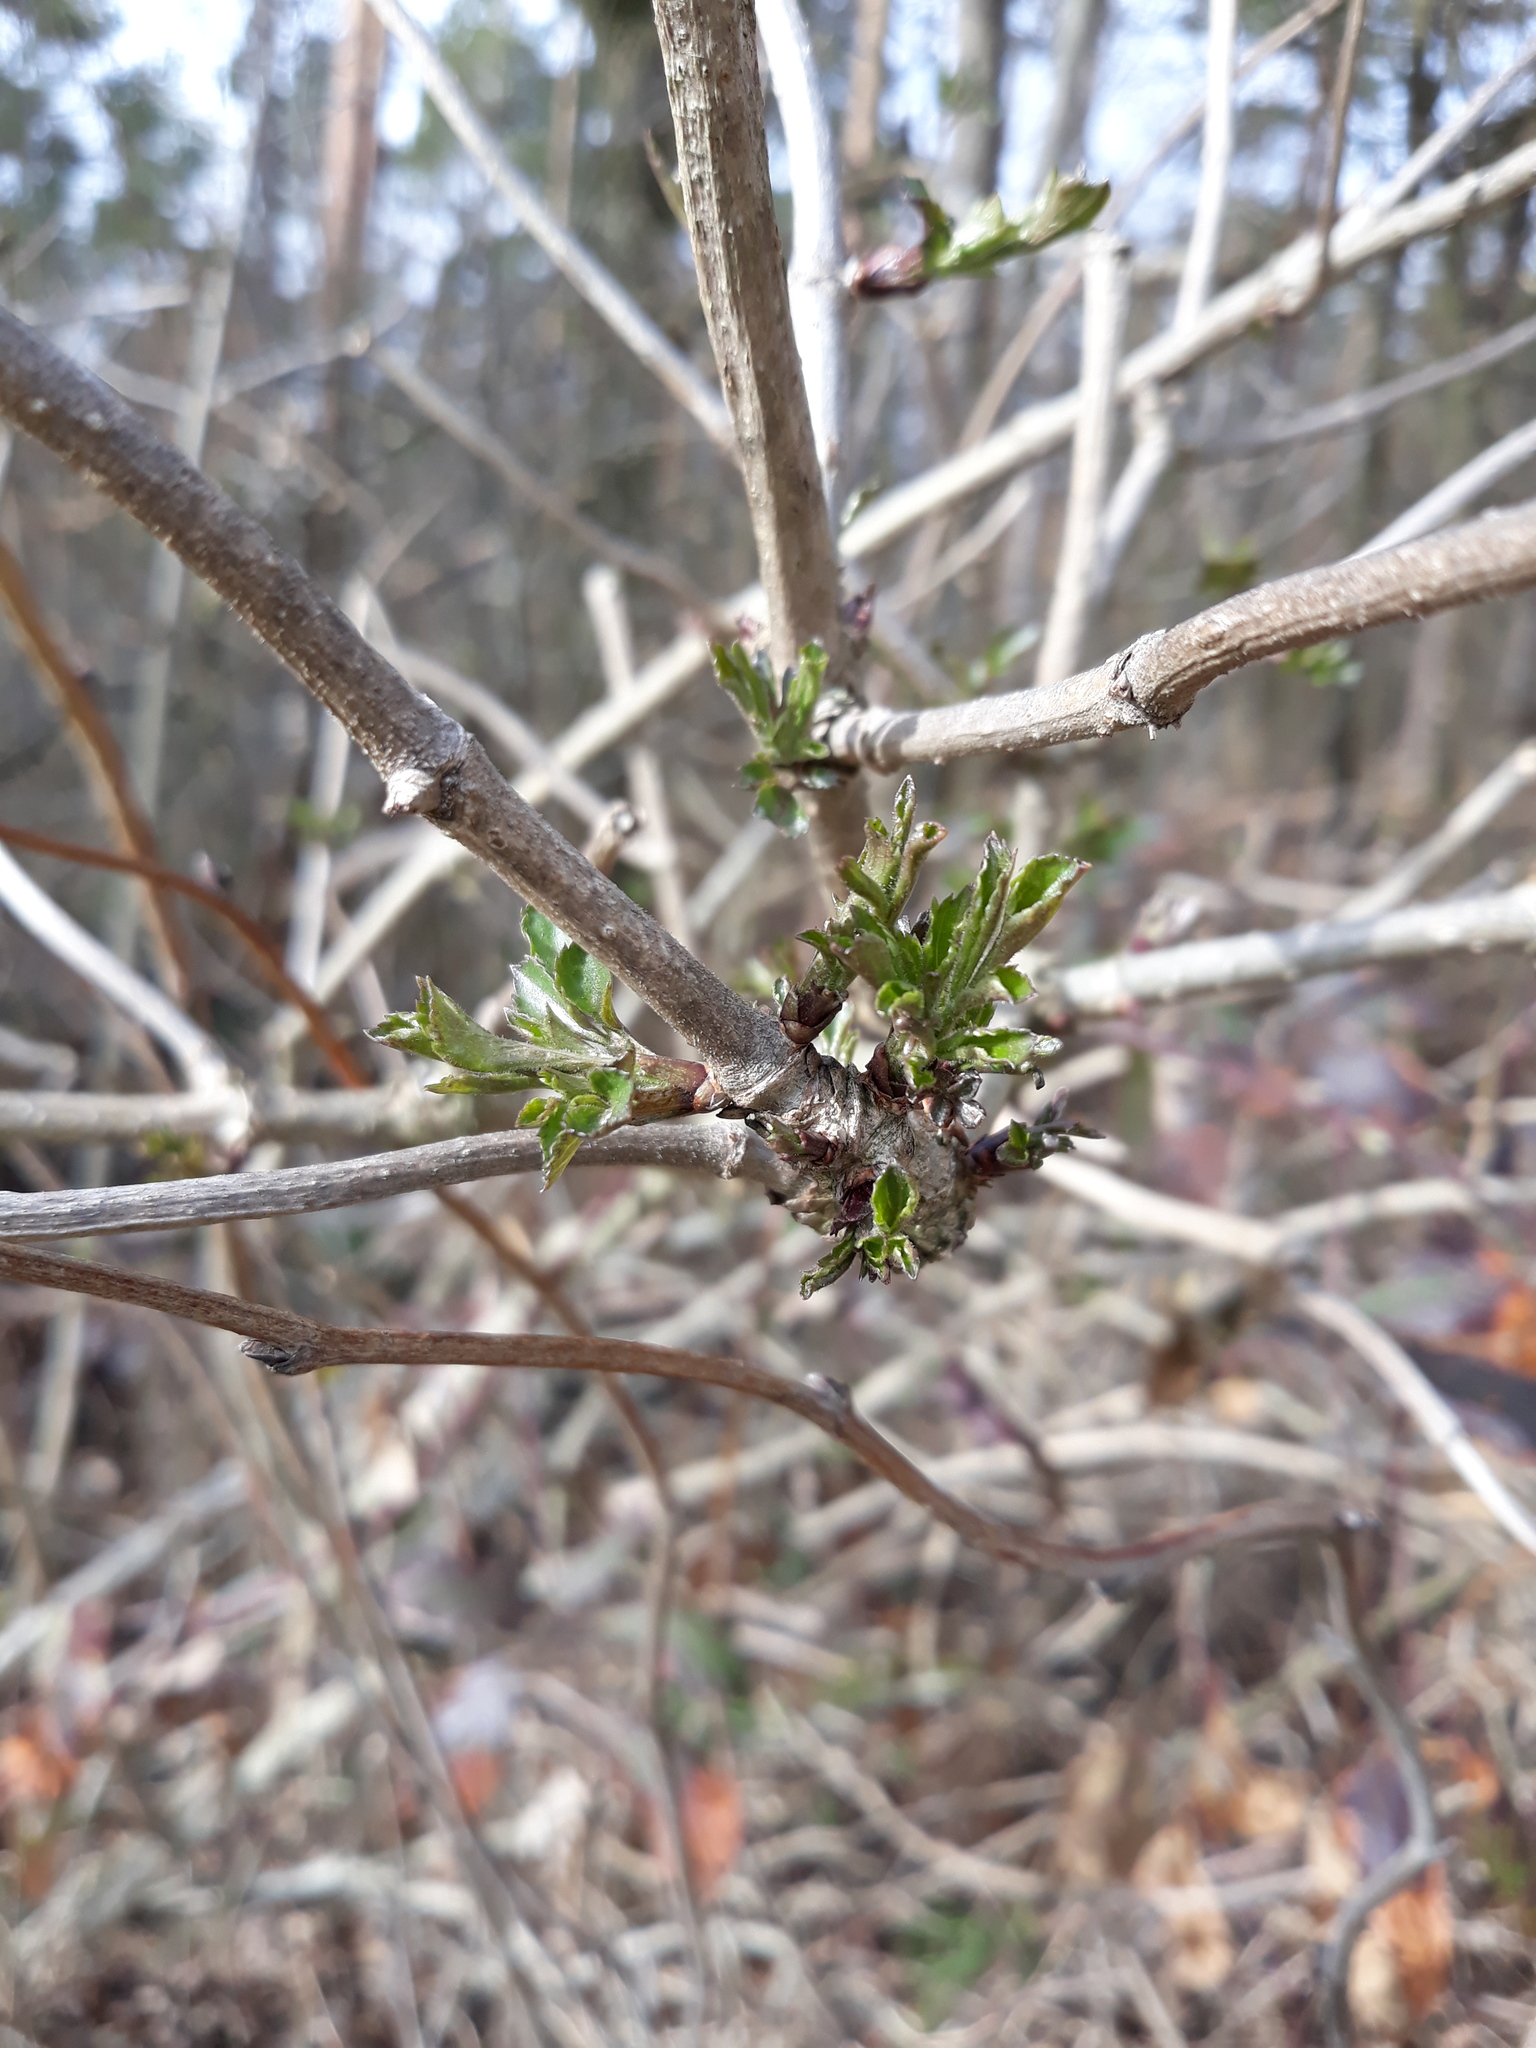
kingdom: Plantae
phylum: Tracheophyta
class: Magnoliopsida
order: Dipsacales
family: Viburnaceae
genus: Sambucus
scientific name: Sambucus nigra
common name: Elder
